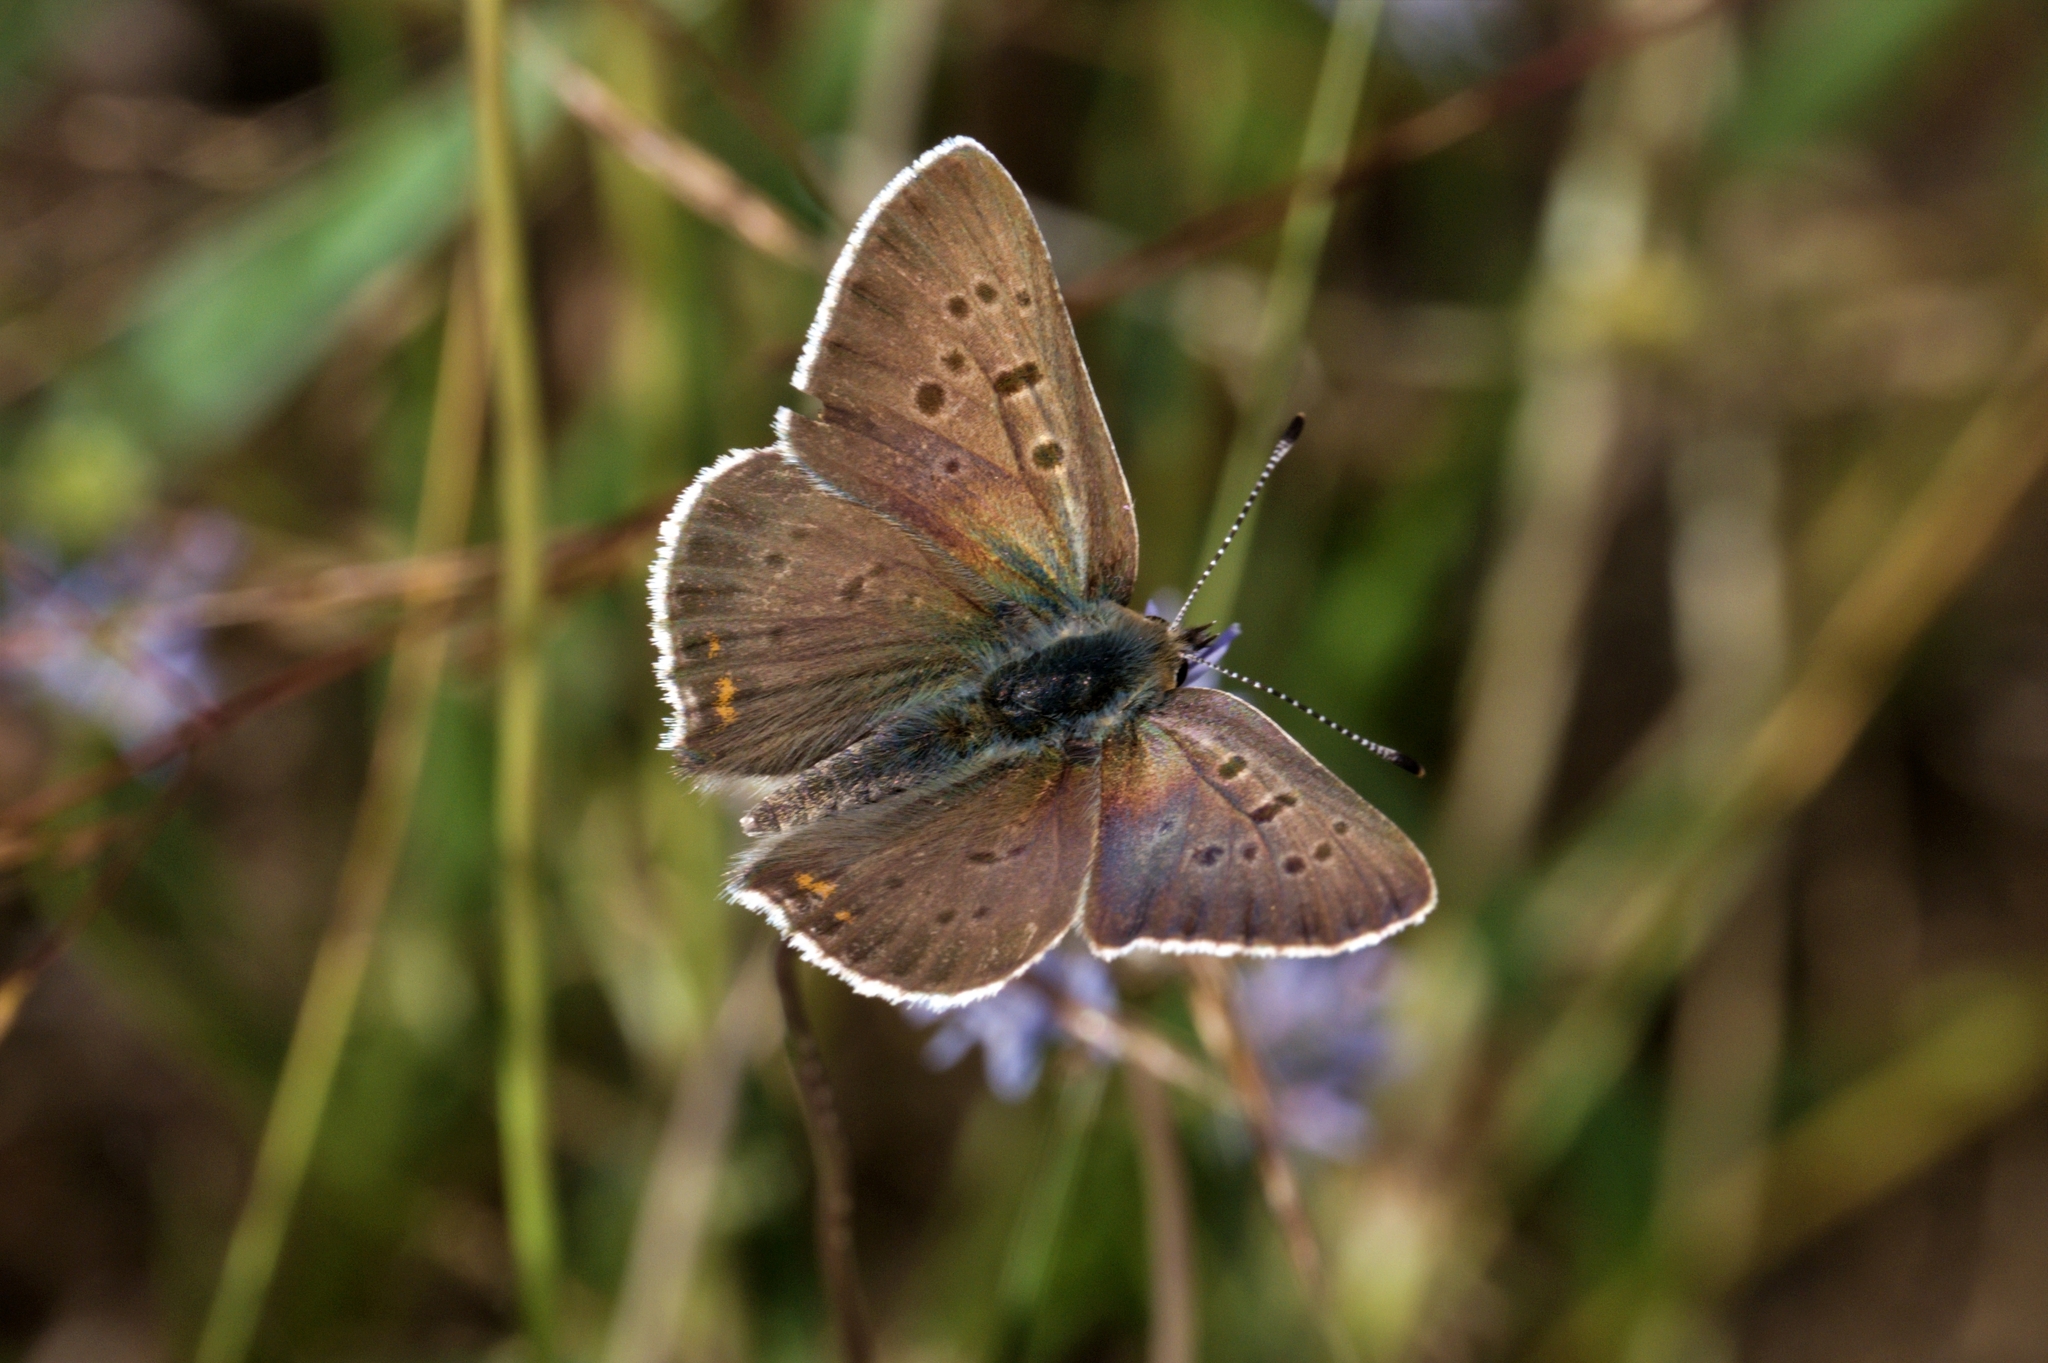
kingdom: Animalia
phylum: Arthropoda
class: Insecta
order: Lepidoptera
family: Lycaenidae
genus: Loweia
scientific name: Loweia tityrus
